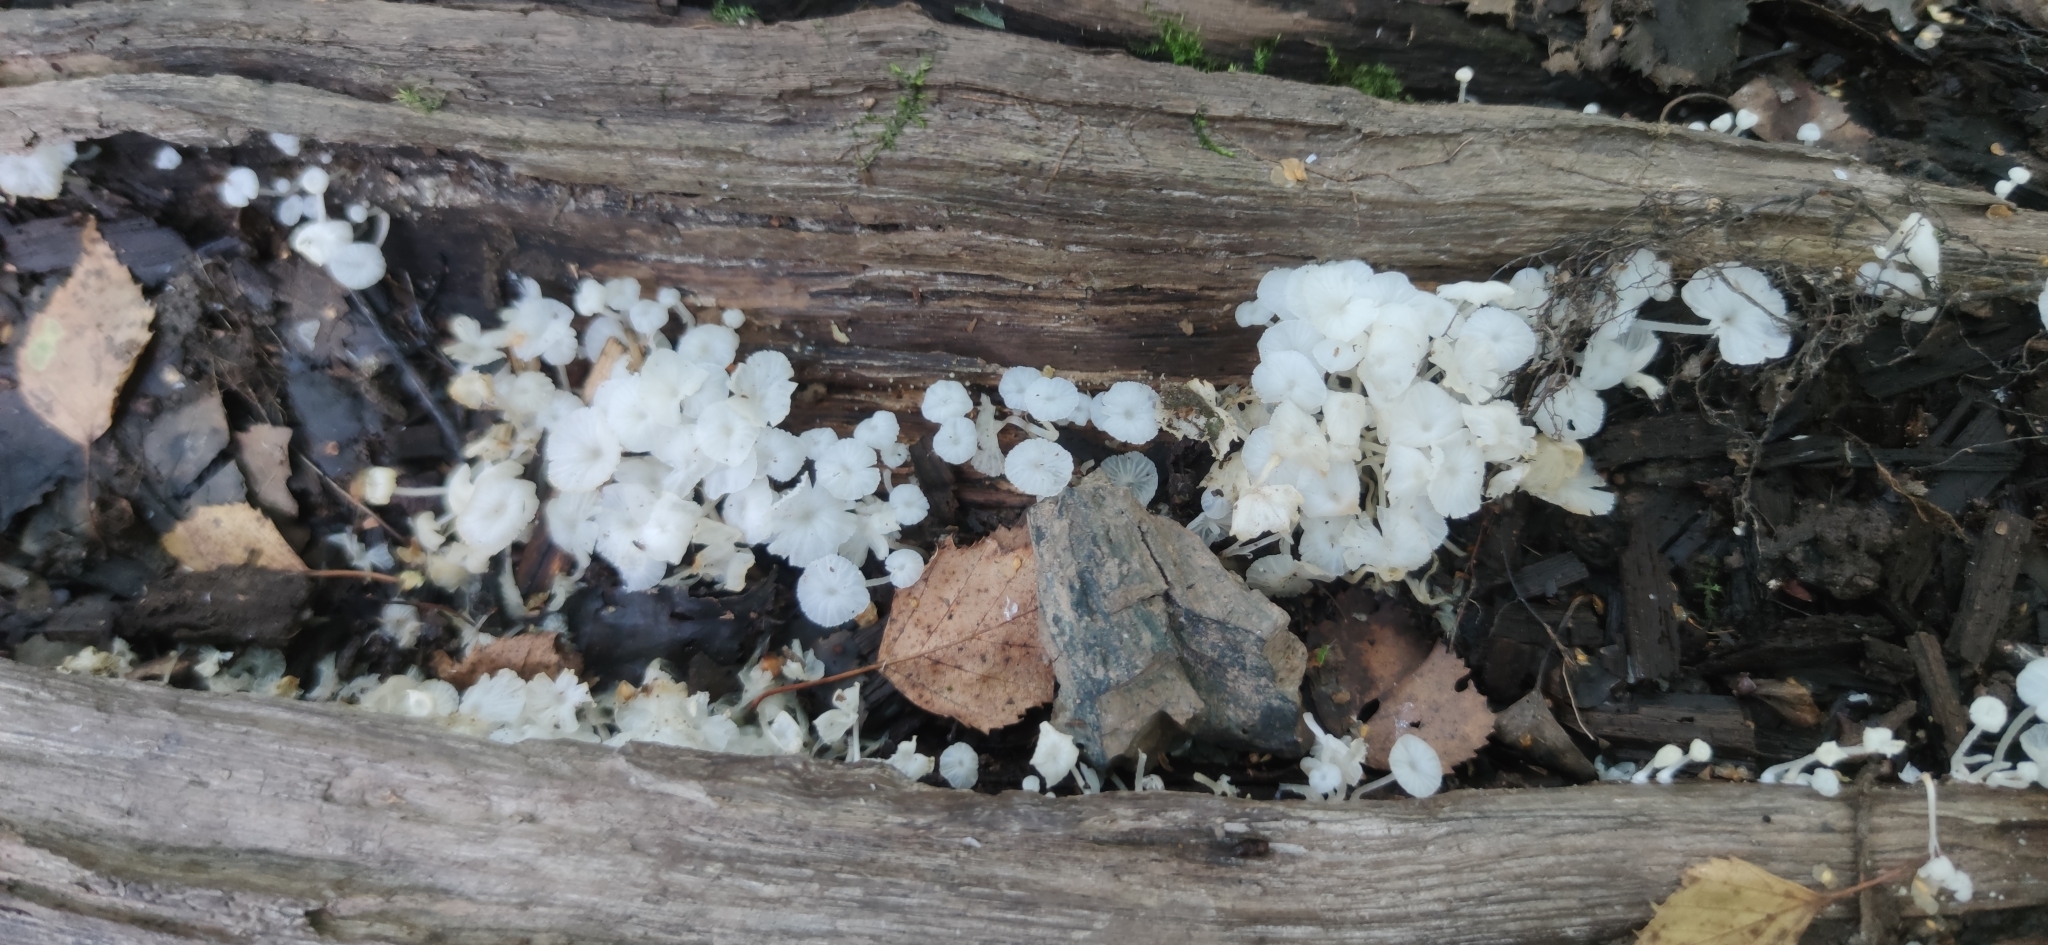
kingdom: Fungi
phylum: Basidiomycota
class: Agaricomycetes
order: Agaricales
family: Tricholomataceae
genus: Delicatula
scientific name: Delicatula integrella
